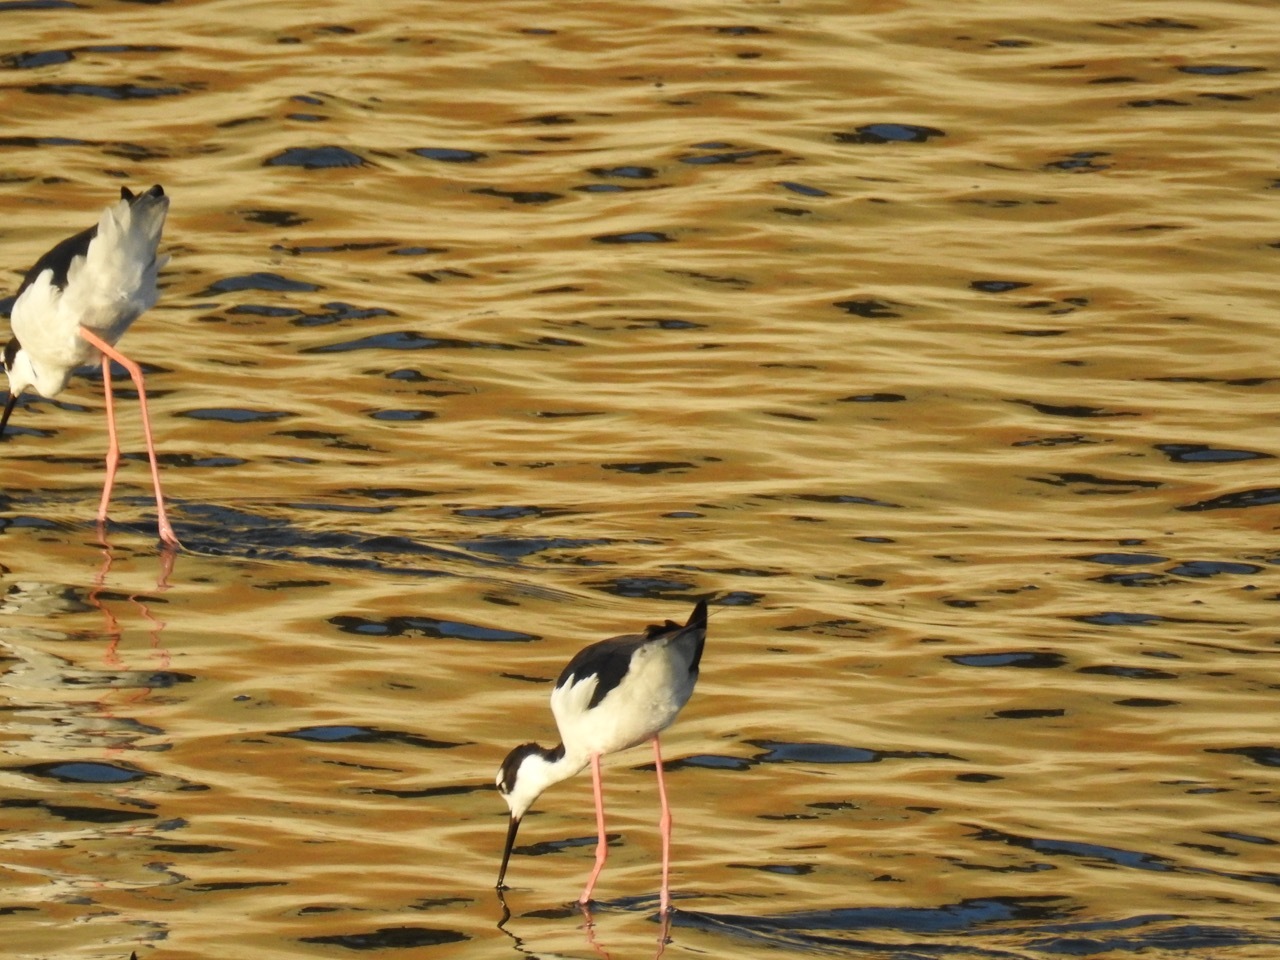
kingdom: Animalia
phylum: Chordata
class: Aves
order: Charadriiformes
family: Recurvirostridae
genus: Himantopus
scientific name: Himantopus mexicanus
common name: Black-necked stilt
